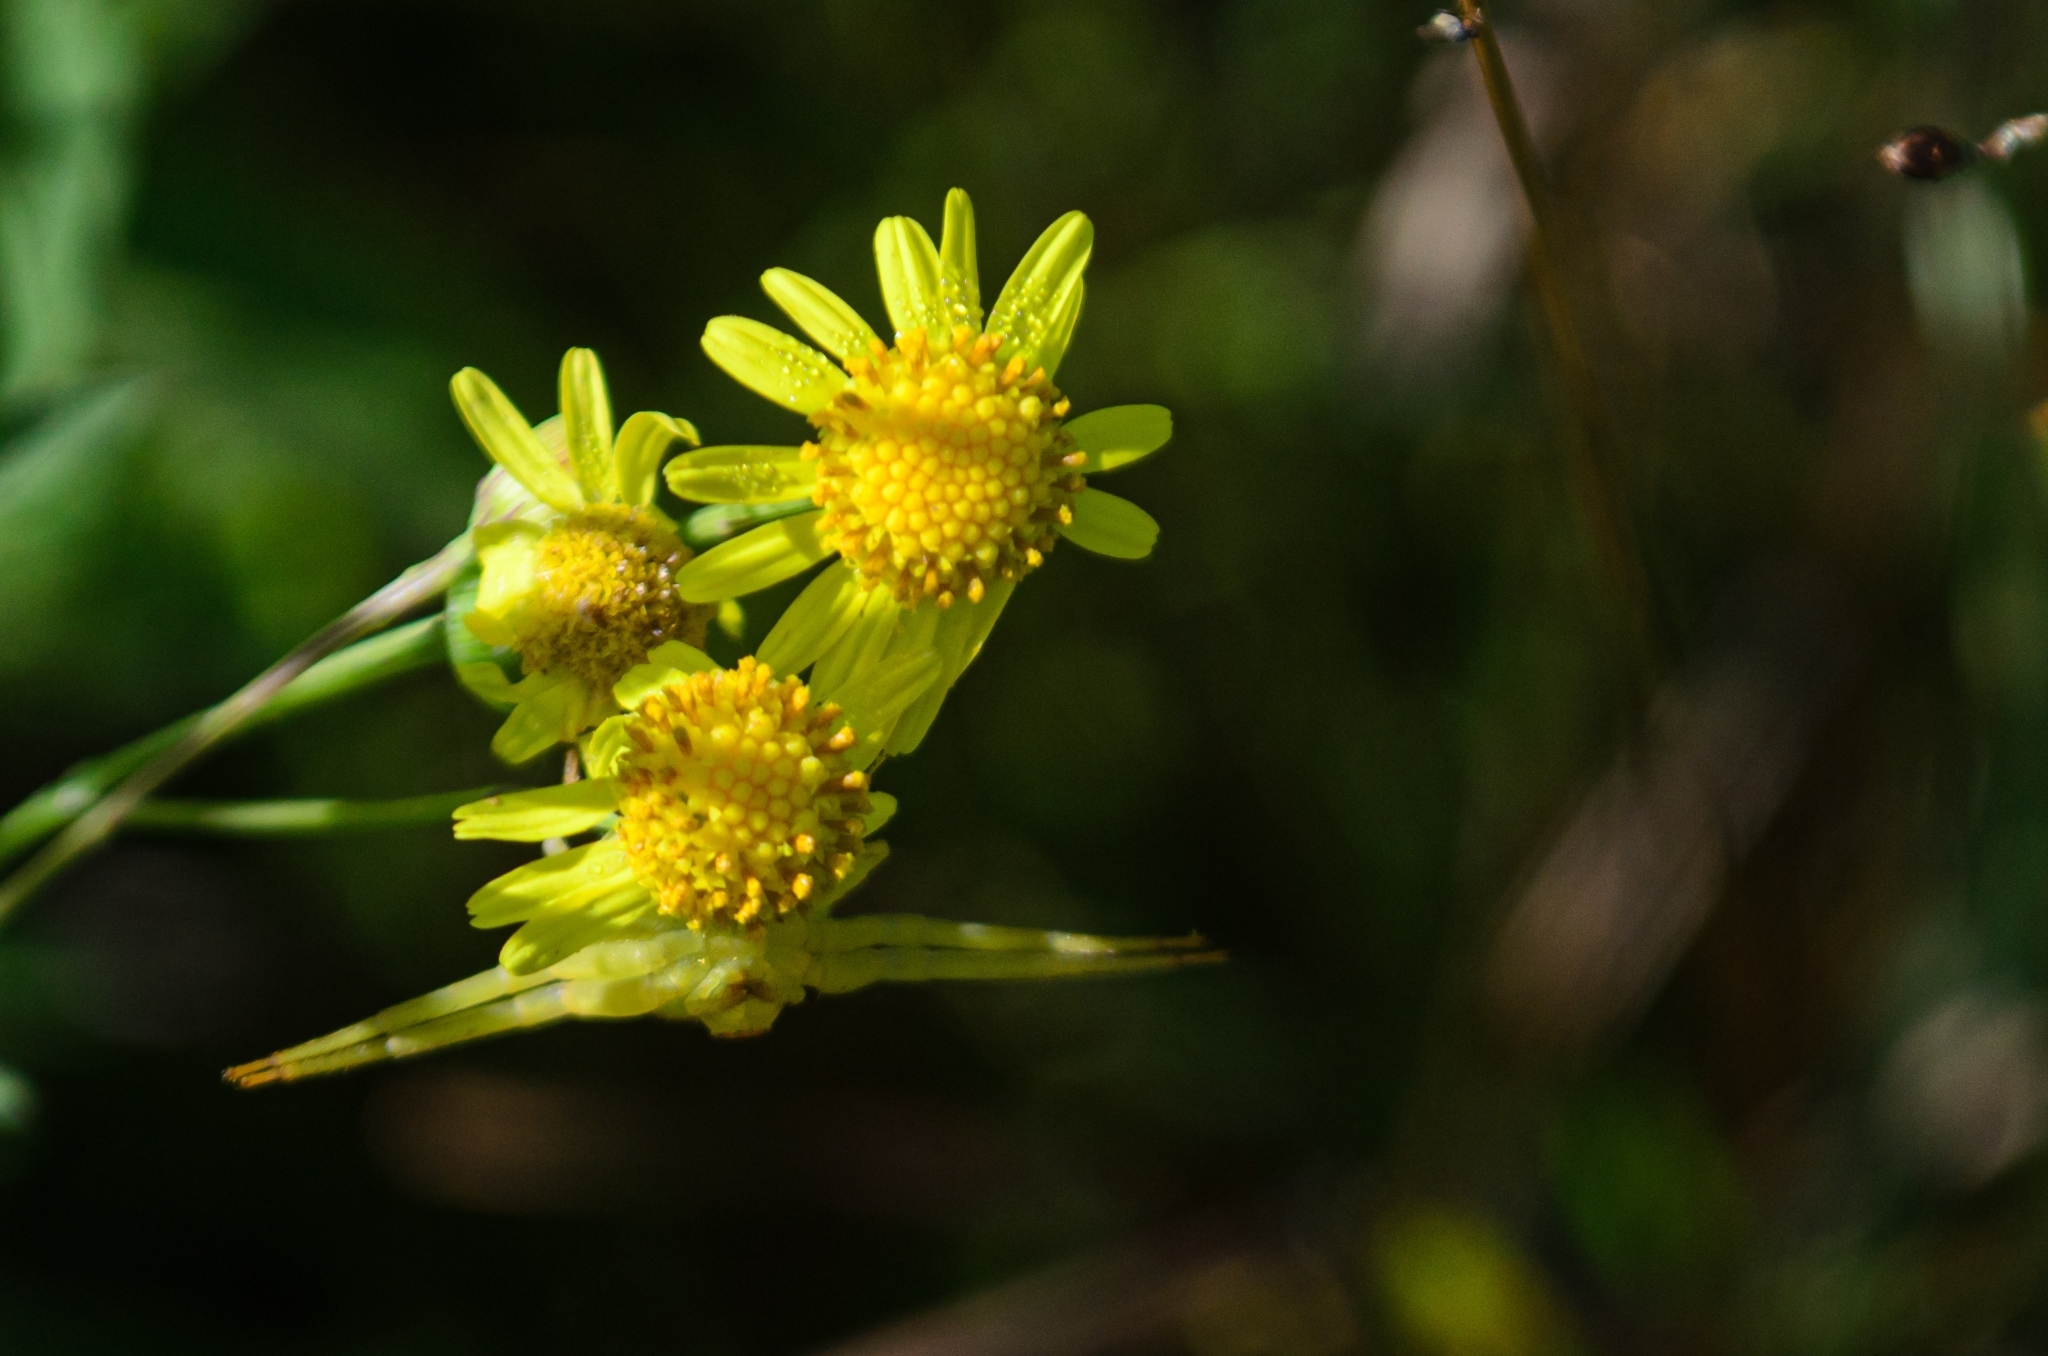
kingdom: Animalia
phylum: Arthropoda
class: Arachnida
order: Araneae
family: Thomisidae
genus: Misumenops
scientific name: Misumenops callinurus
